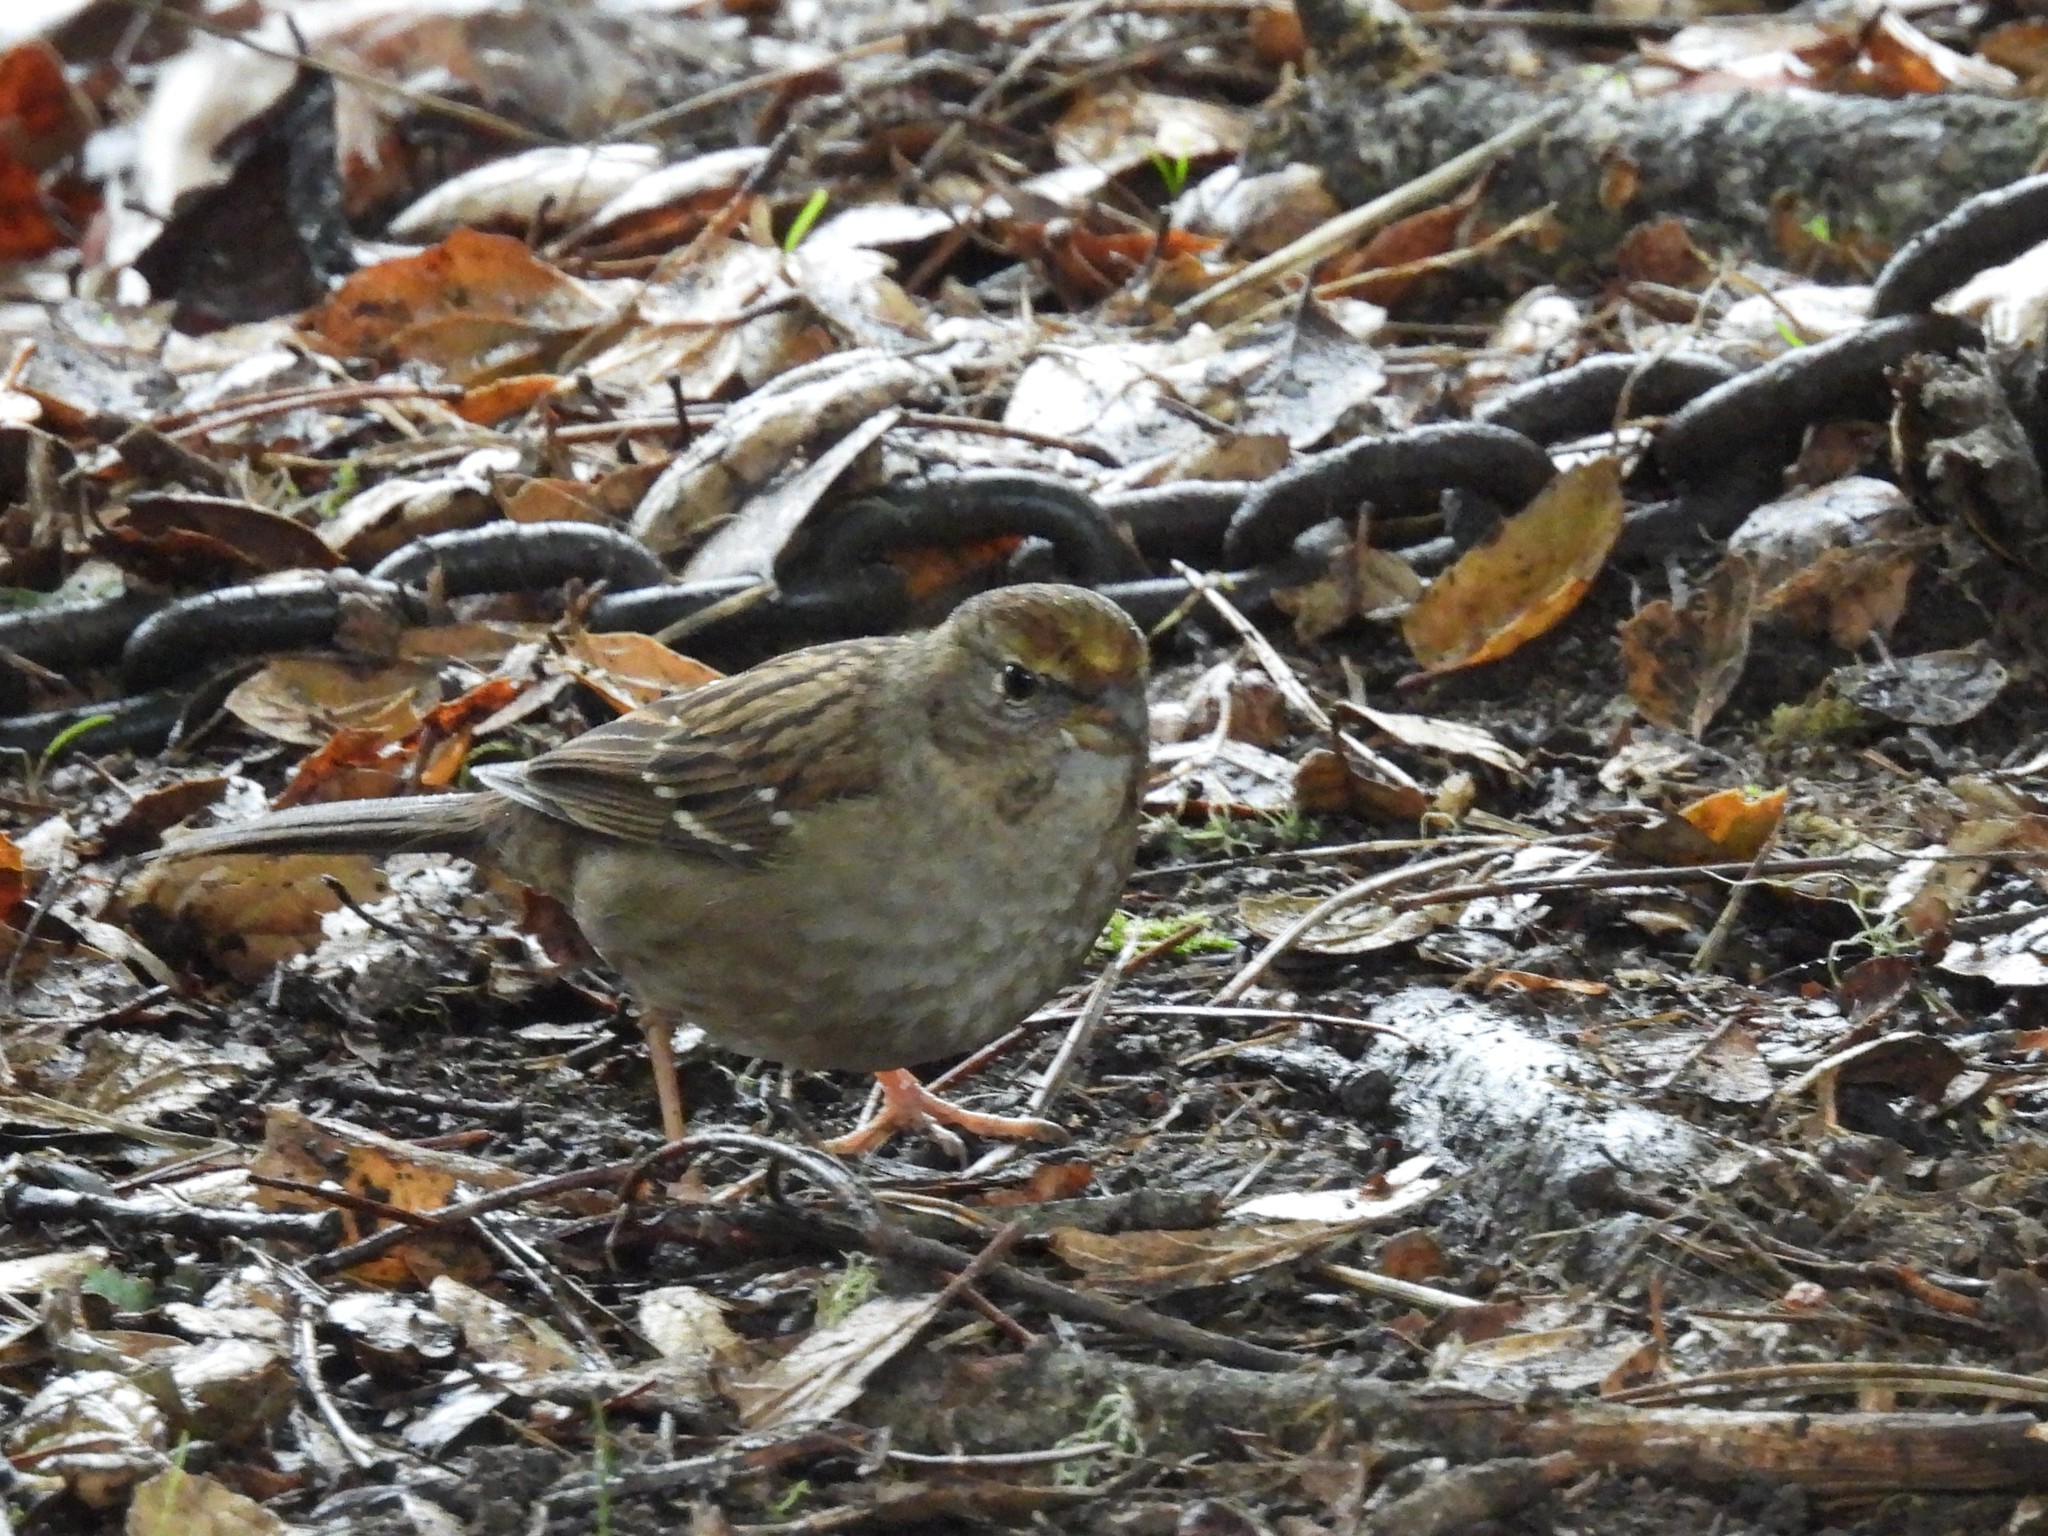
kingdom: Animalia
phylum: Chordata
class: Aves
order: Passeriformes
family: Passerellidae
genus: Zonotrichia
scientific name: Zonotrichia atricapilla
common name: Golden-crowned sparrow
